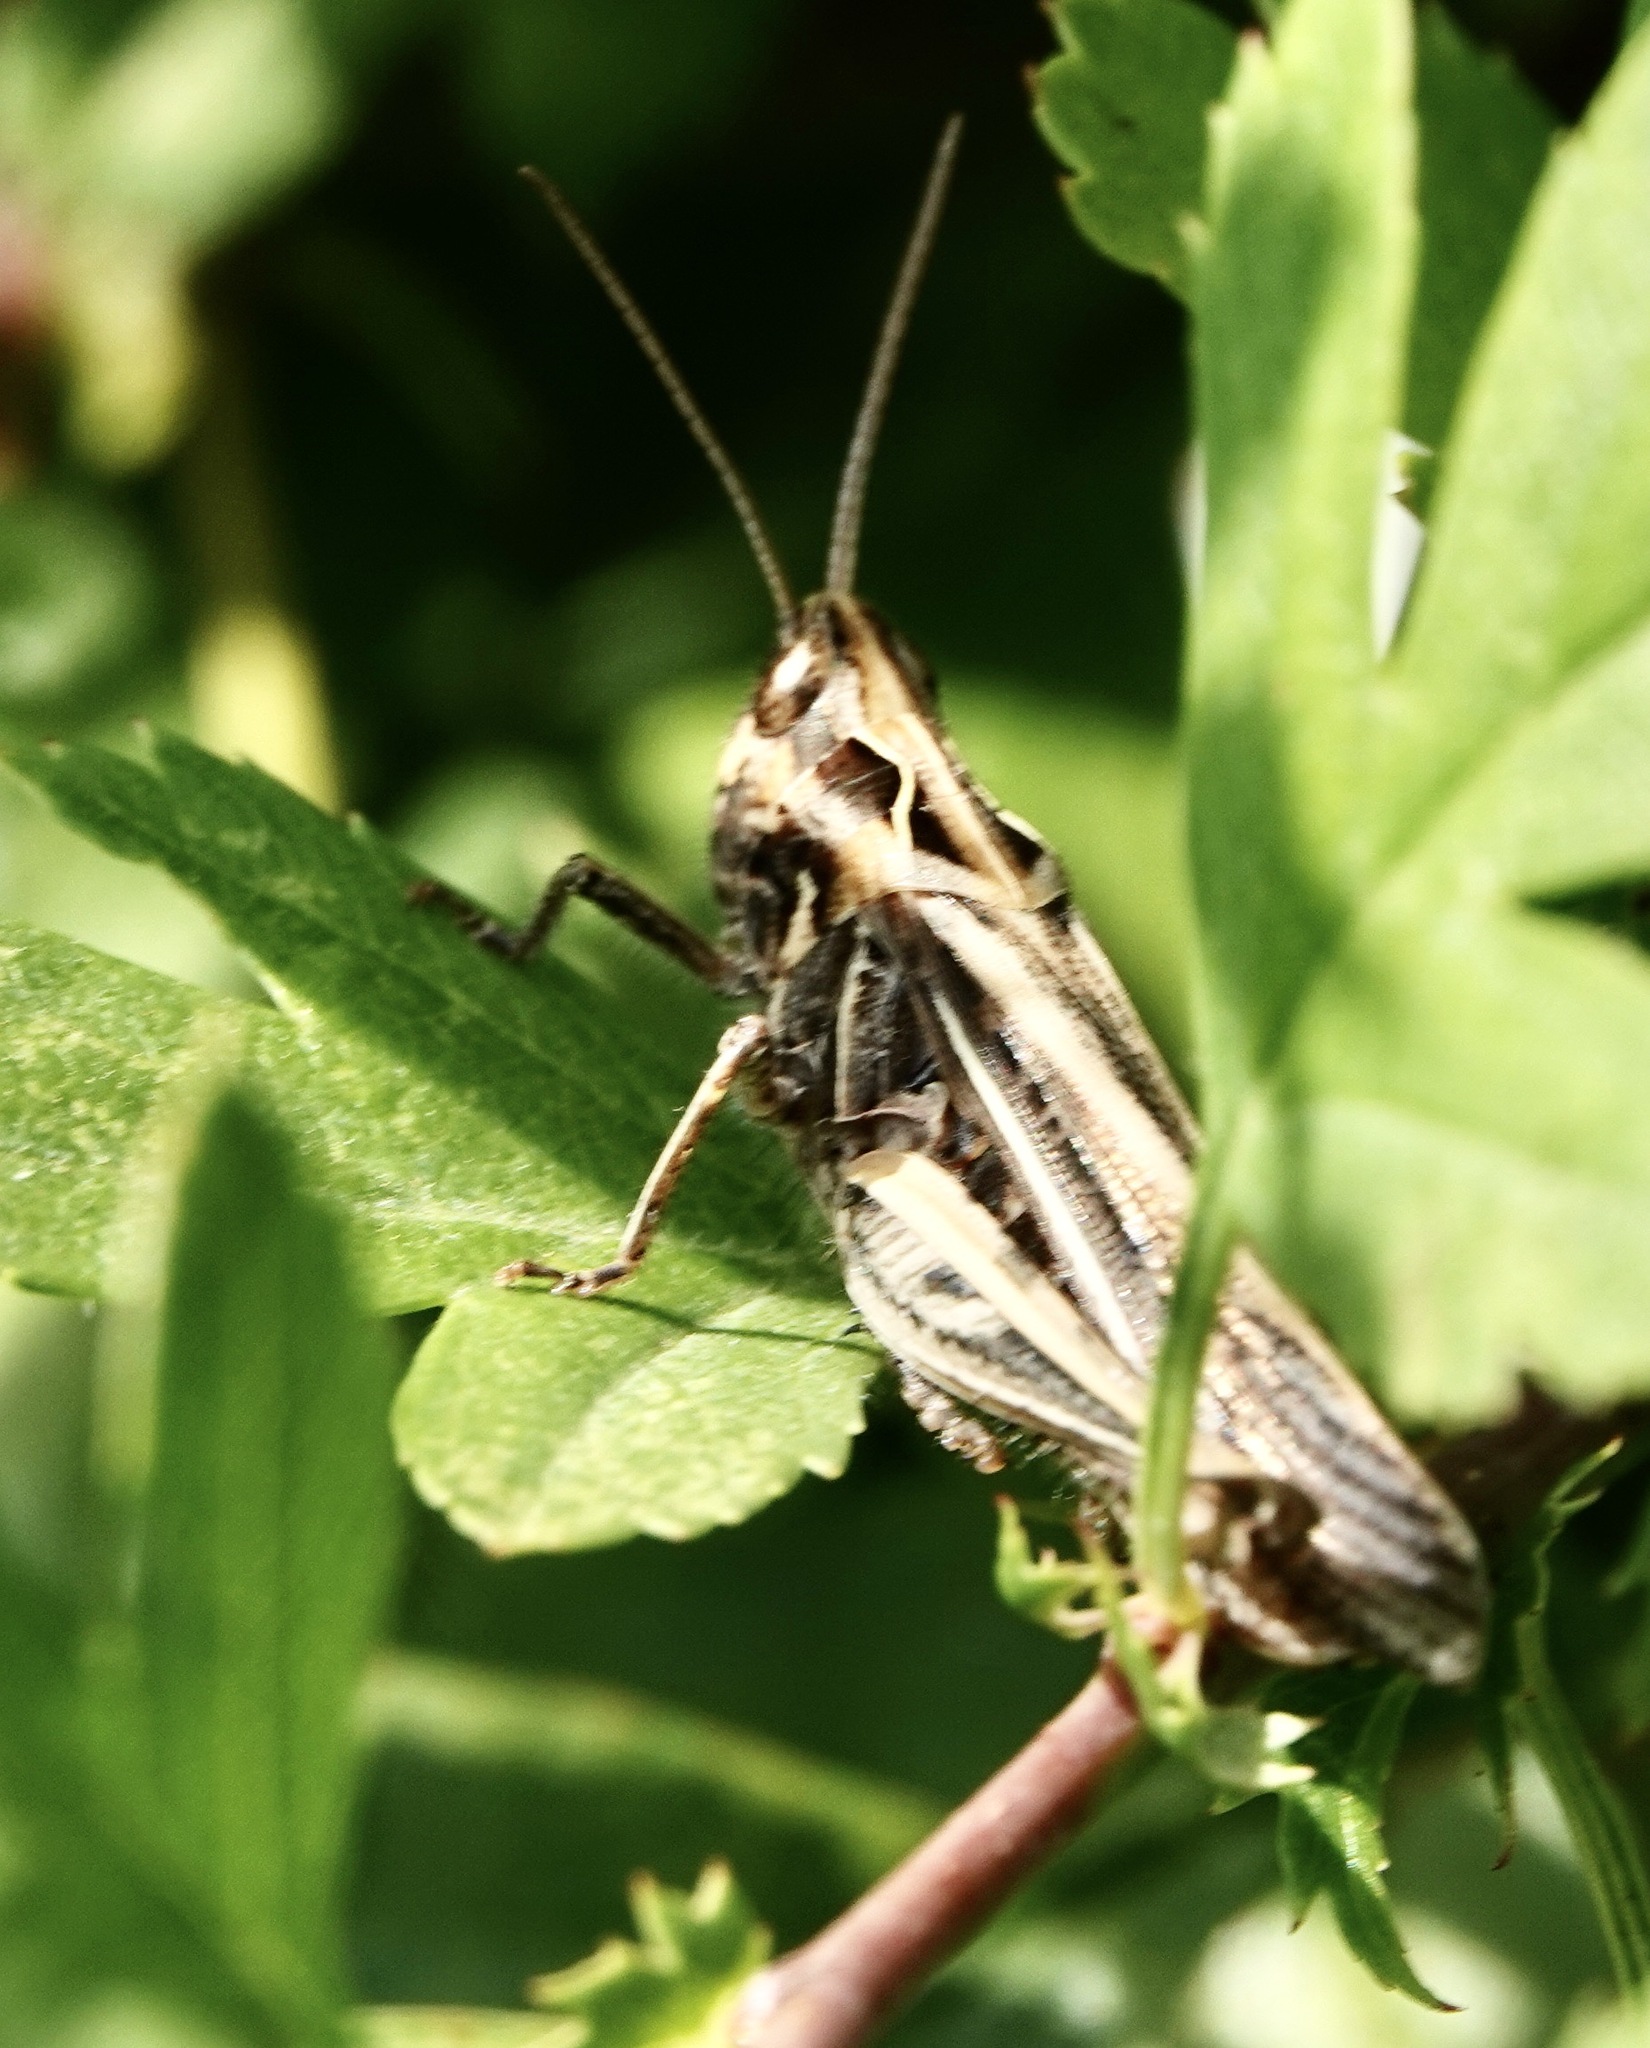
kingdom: Animalia
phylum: Arthropoda
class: Insecta
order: Orthoptera
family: Acrididae
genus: Chorthippus
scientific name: Chorthippus brunneus
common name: Field grasshopper
